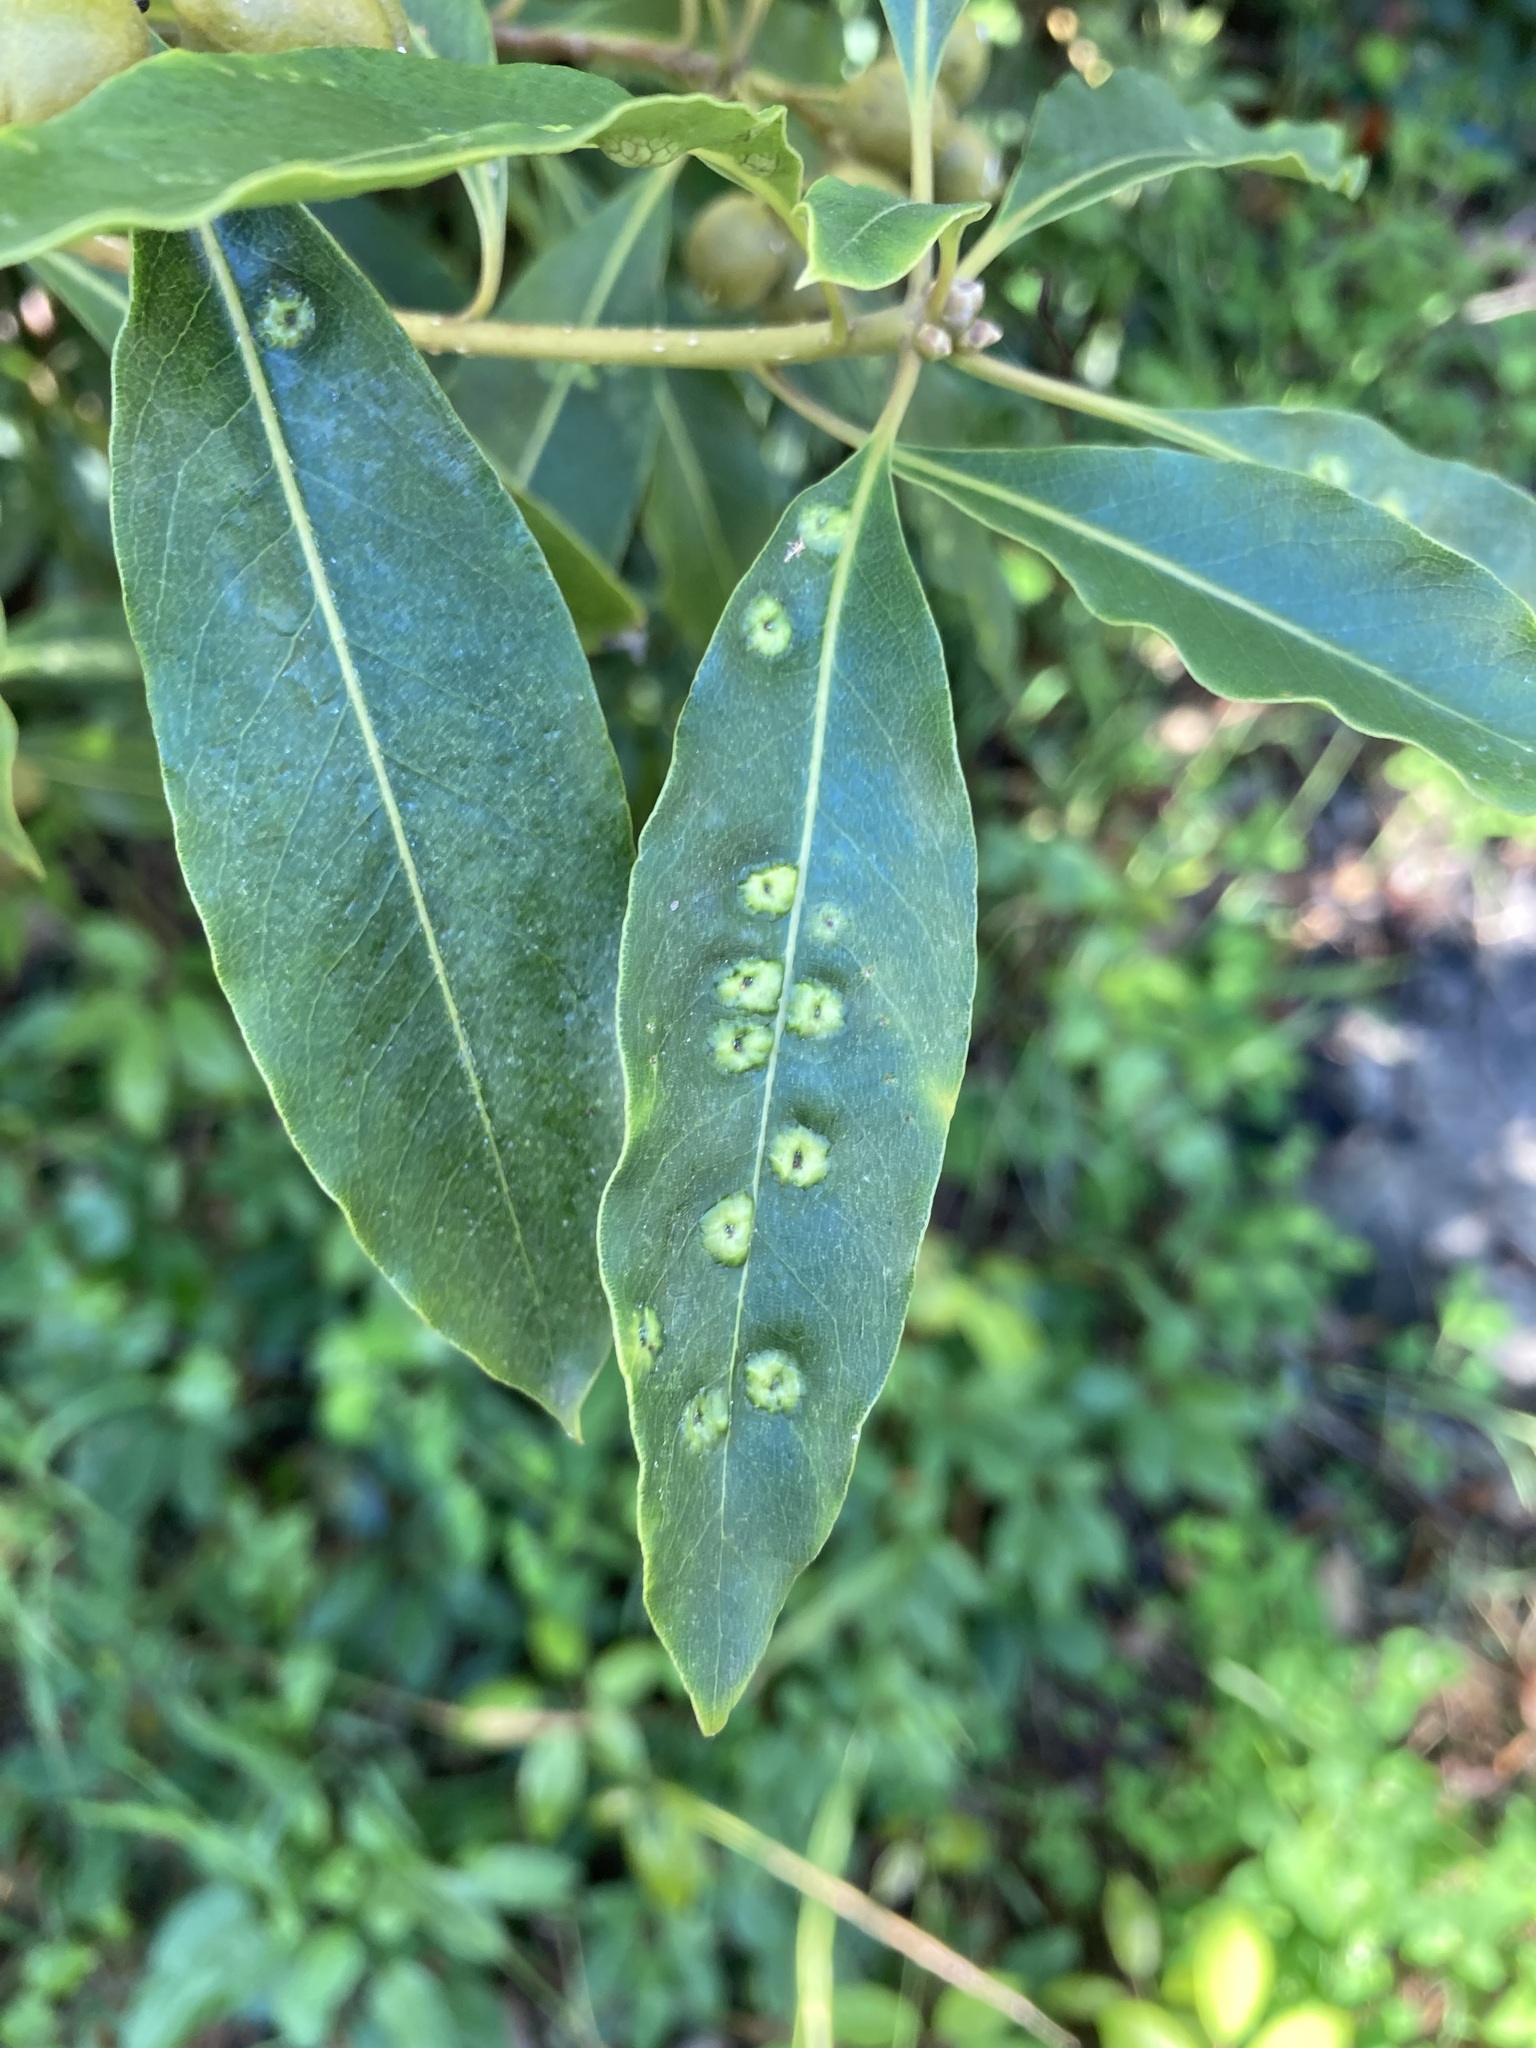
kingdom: Animalia
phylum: Arthropoda
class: Insecta
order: Diptera
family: Agromyzidae
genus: Phytoliriomyza
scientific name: Phytoliriomyza pittosporophylli
